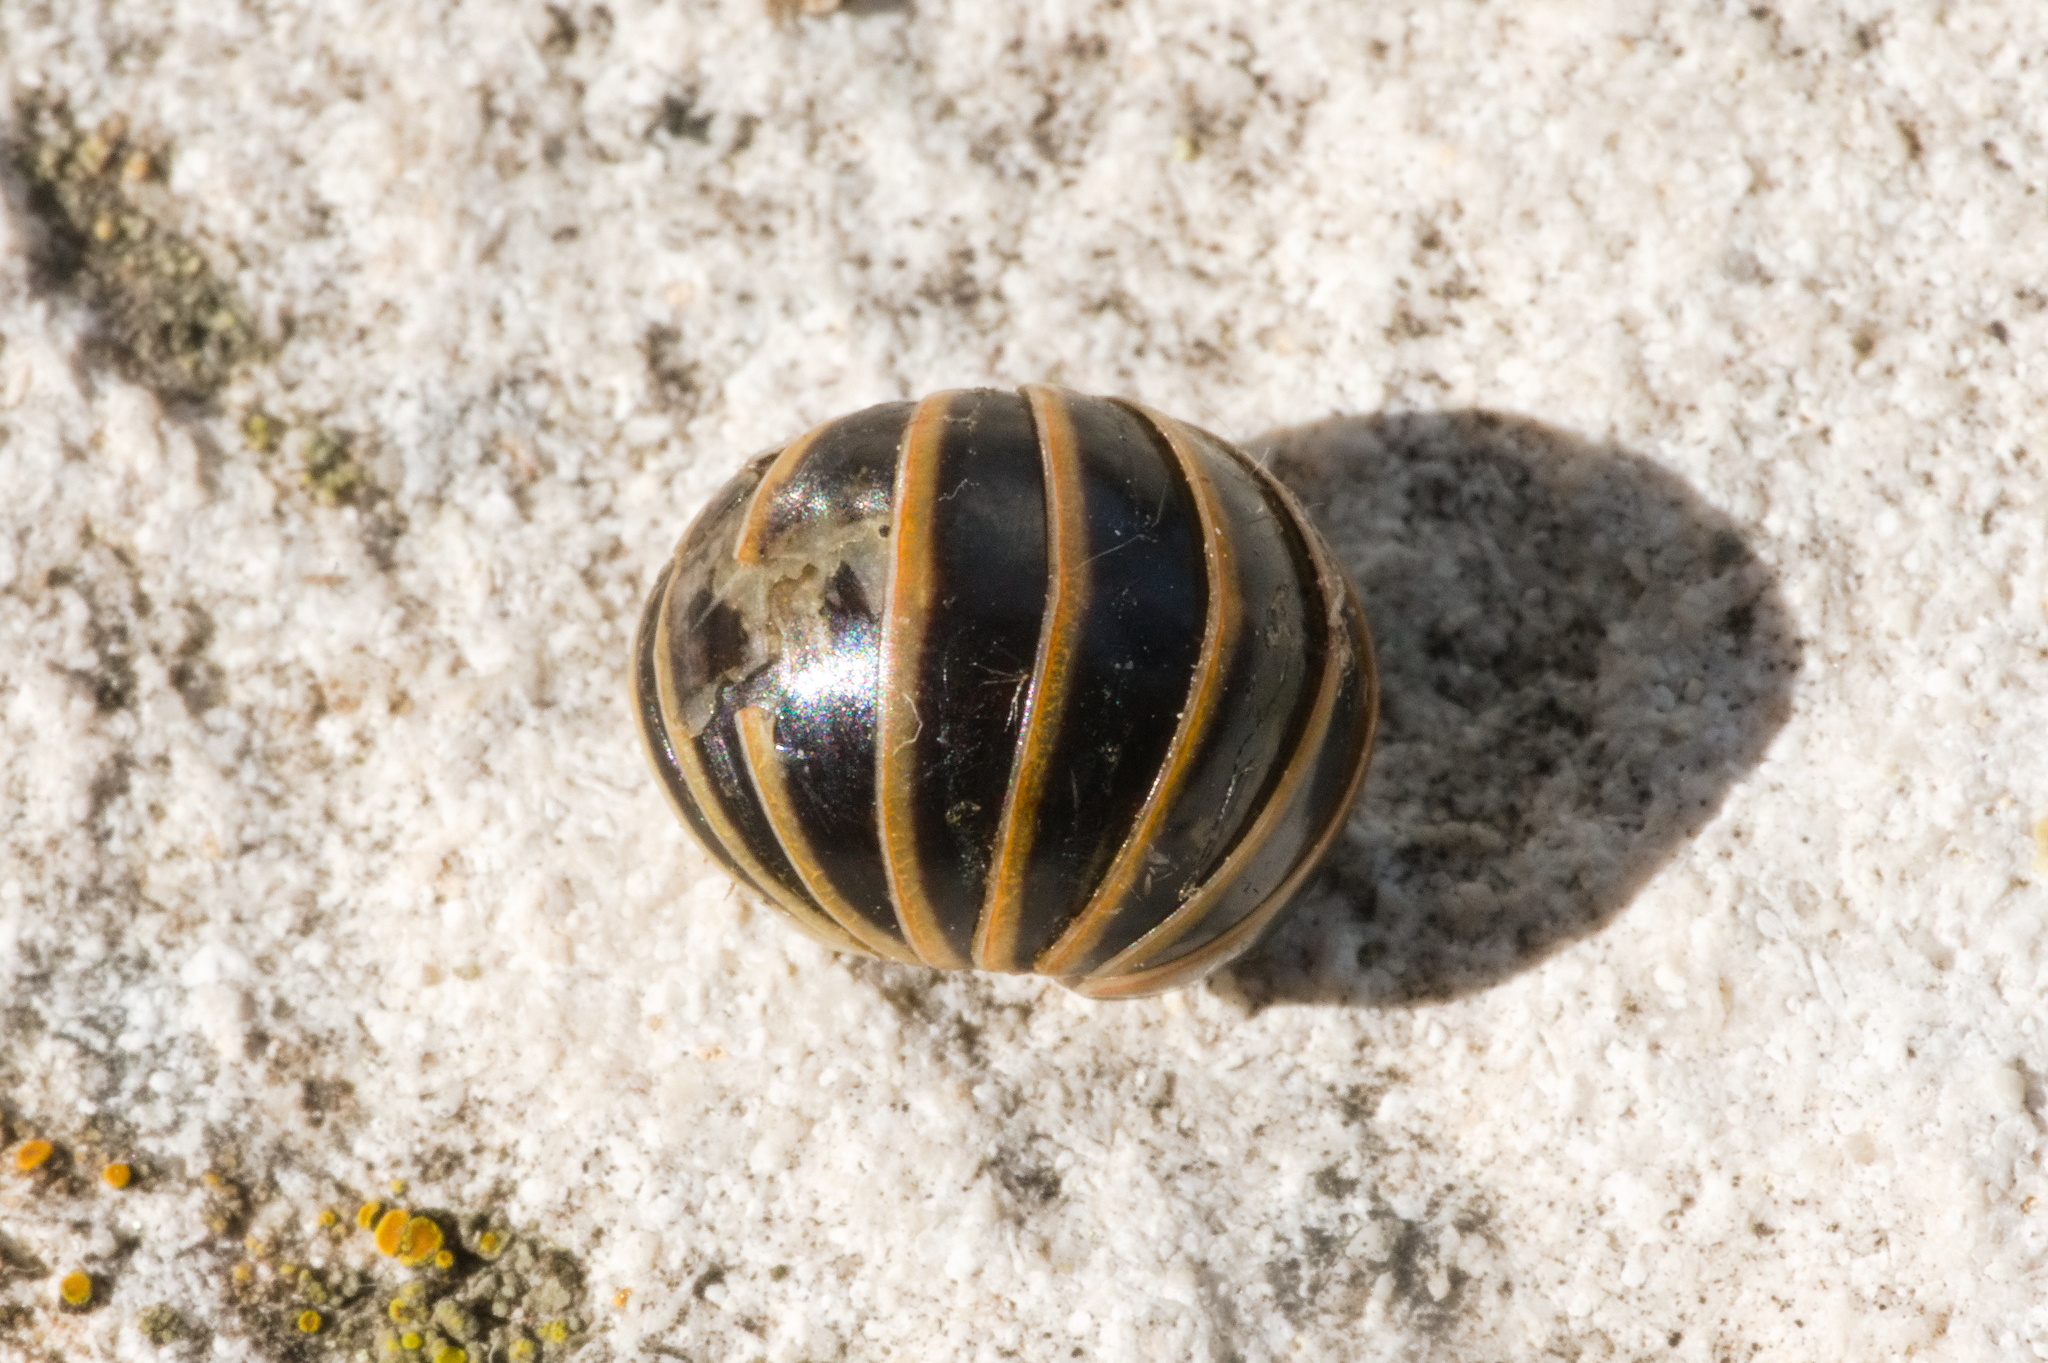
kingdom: Animalia
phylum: Arthropoda
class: Diplopoda
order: Glomerida
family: Glomeridae
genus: Glomeris
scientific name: Glomeris marginata
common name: Bordered pill millipede
